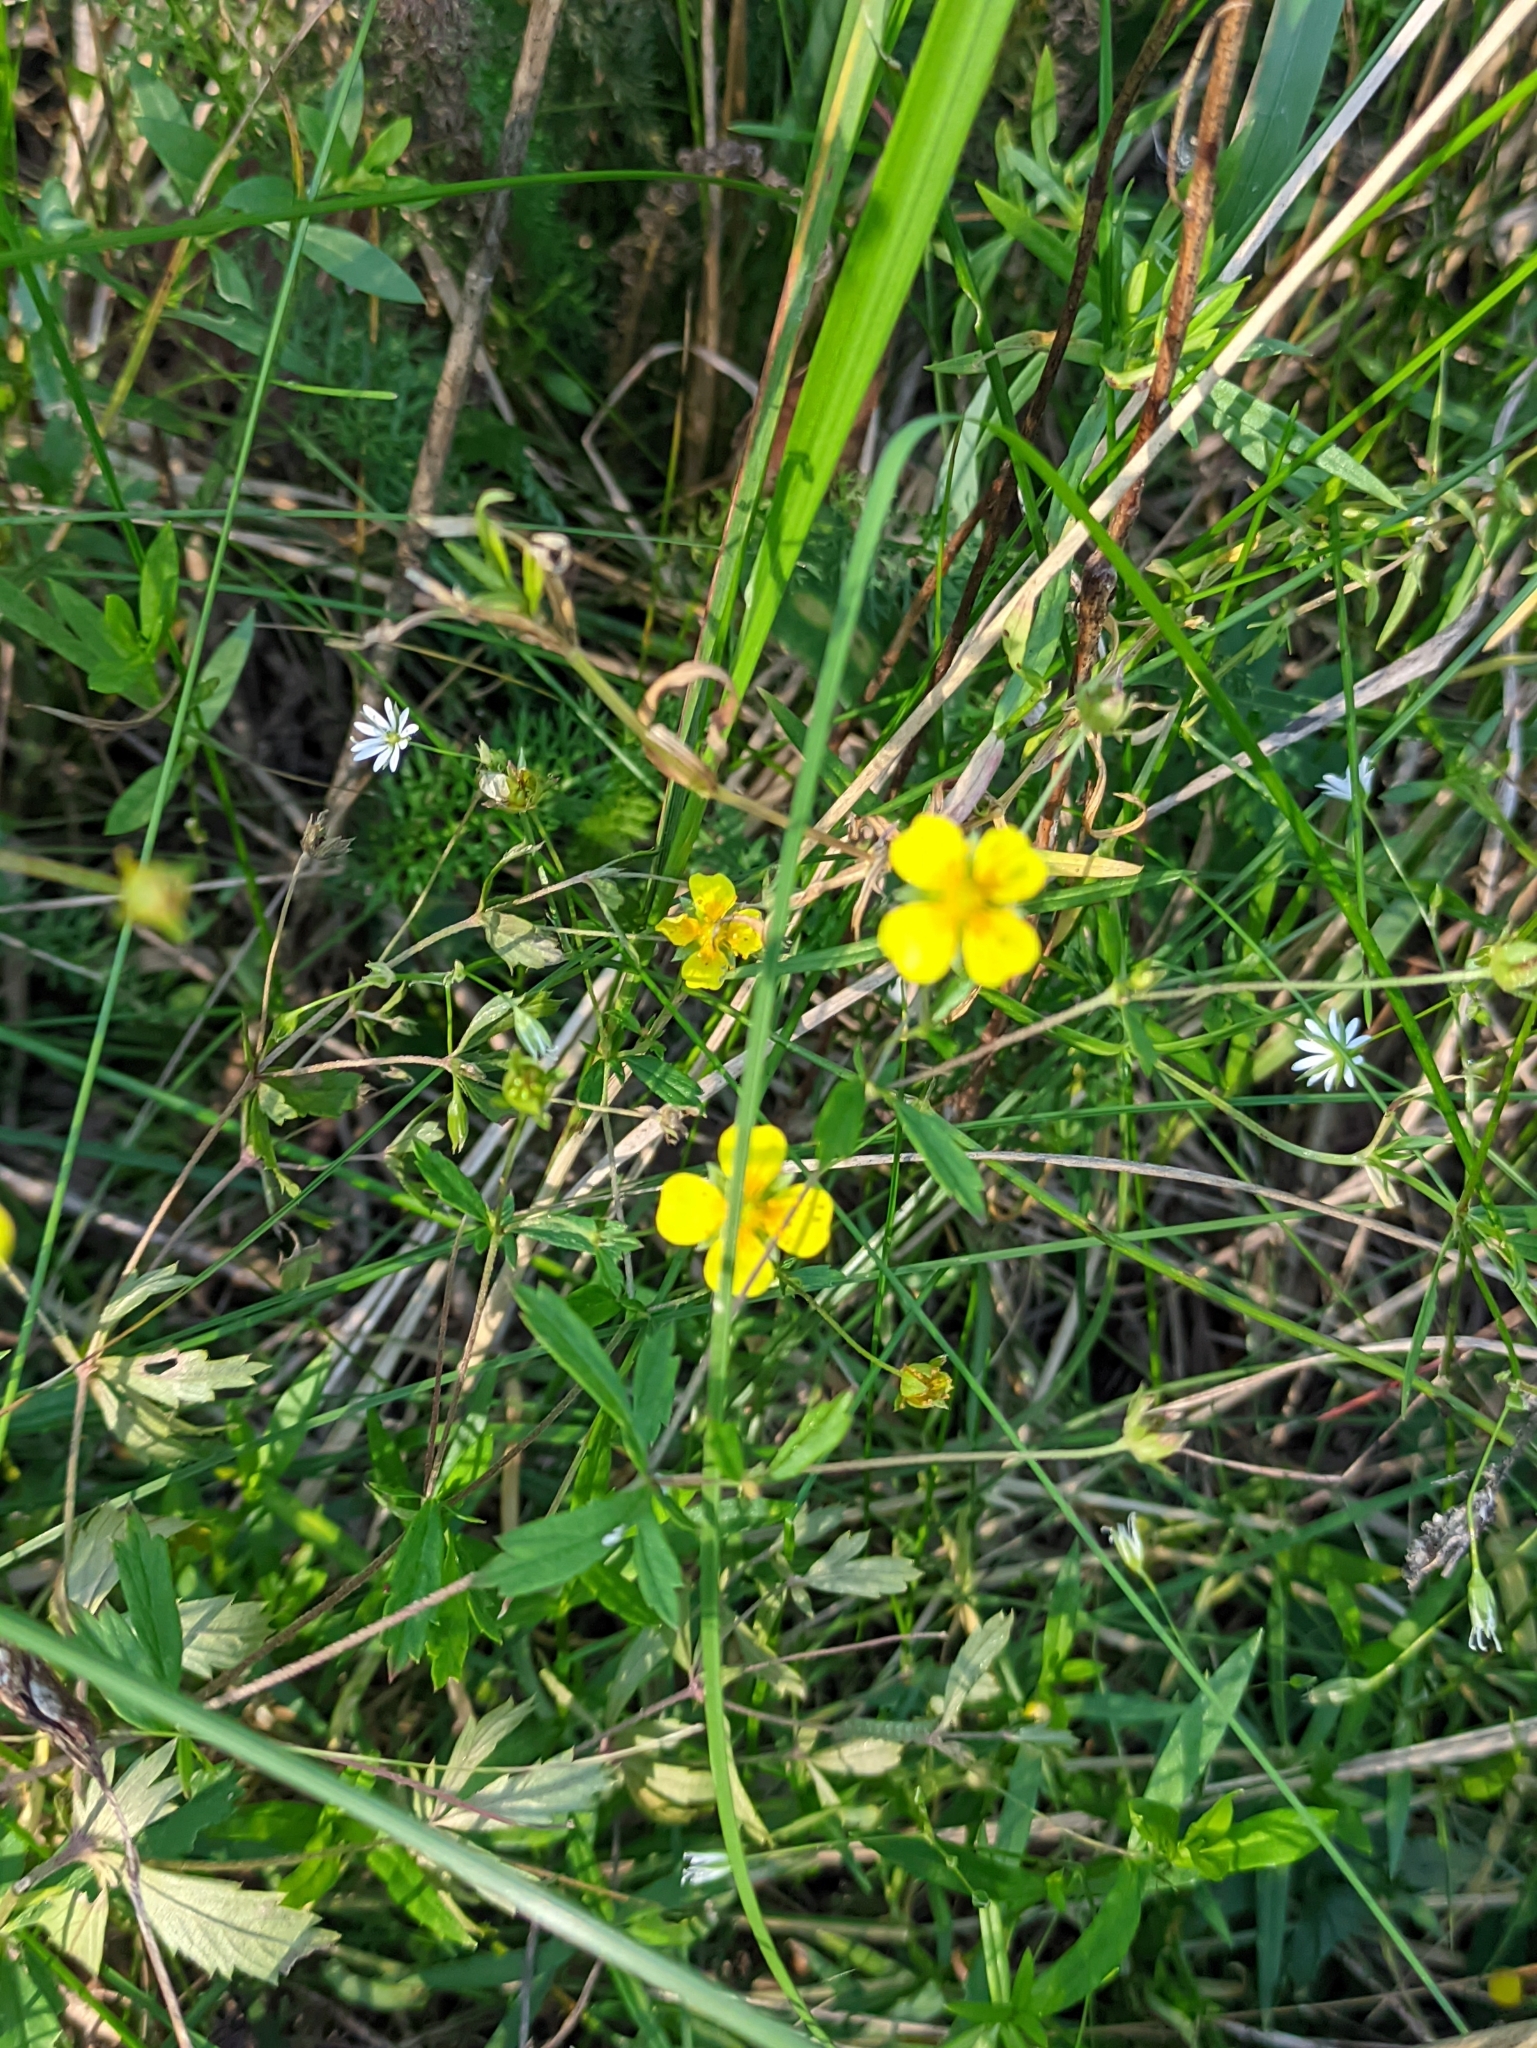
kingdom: Plantae
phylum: Tracheophyta
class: Magnoliopsida
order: Rosales
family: Rosaceae
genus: Potentilla
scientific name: Potentilla erecta
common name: Tormentil
